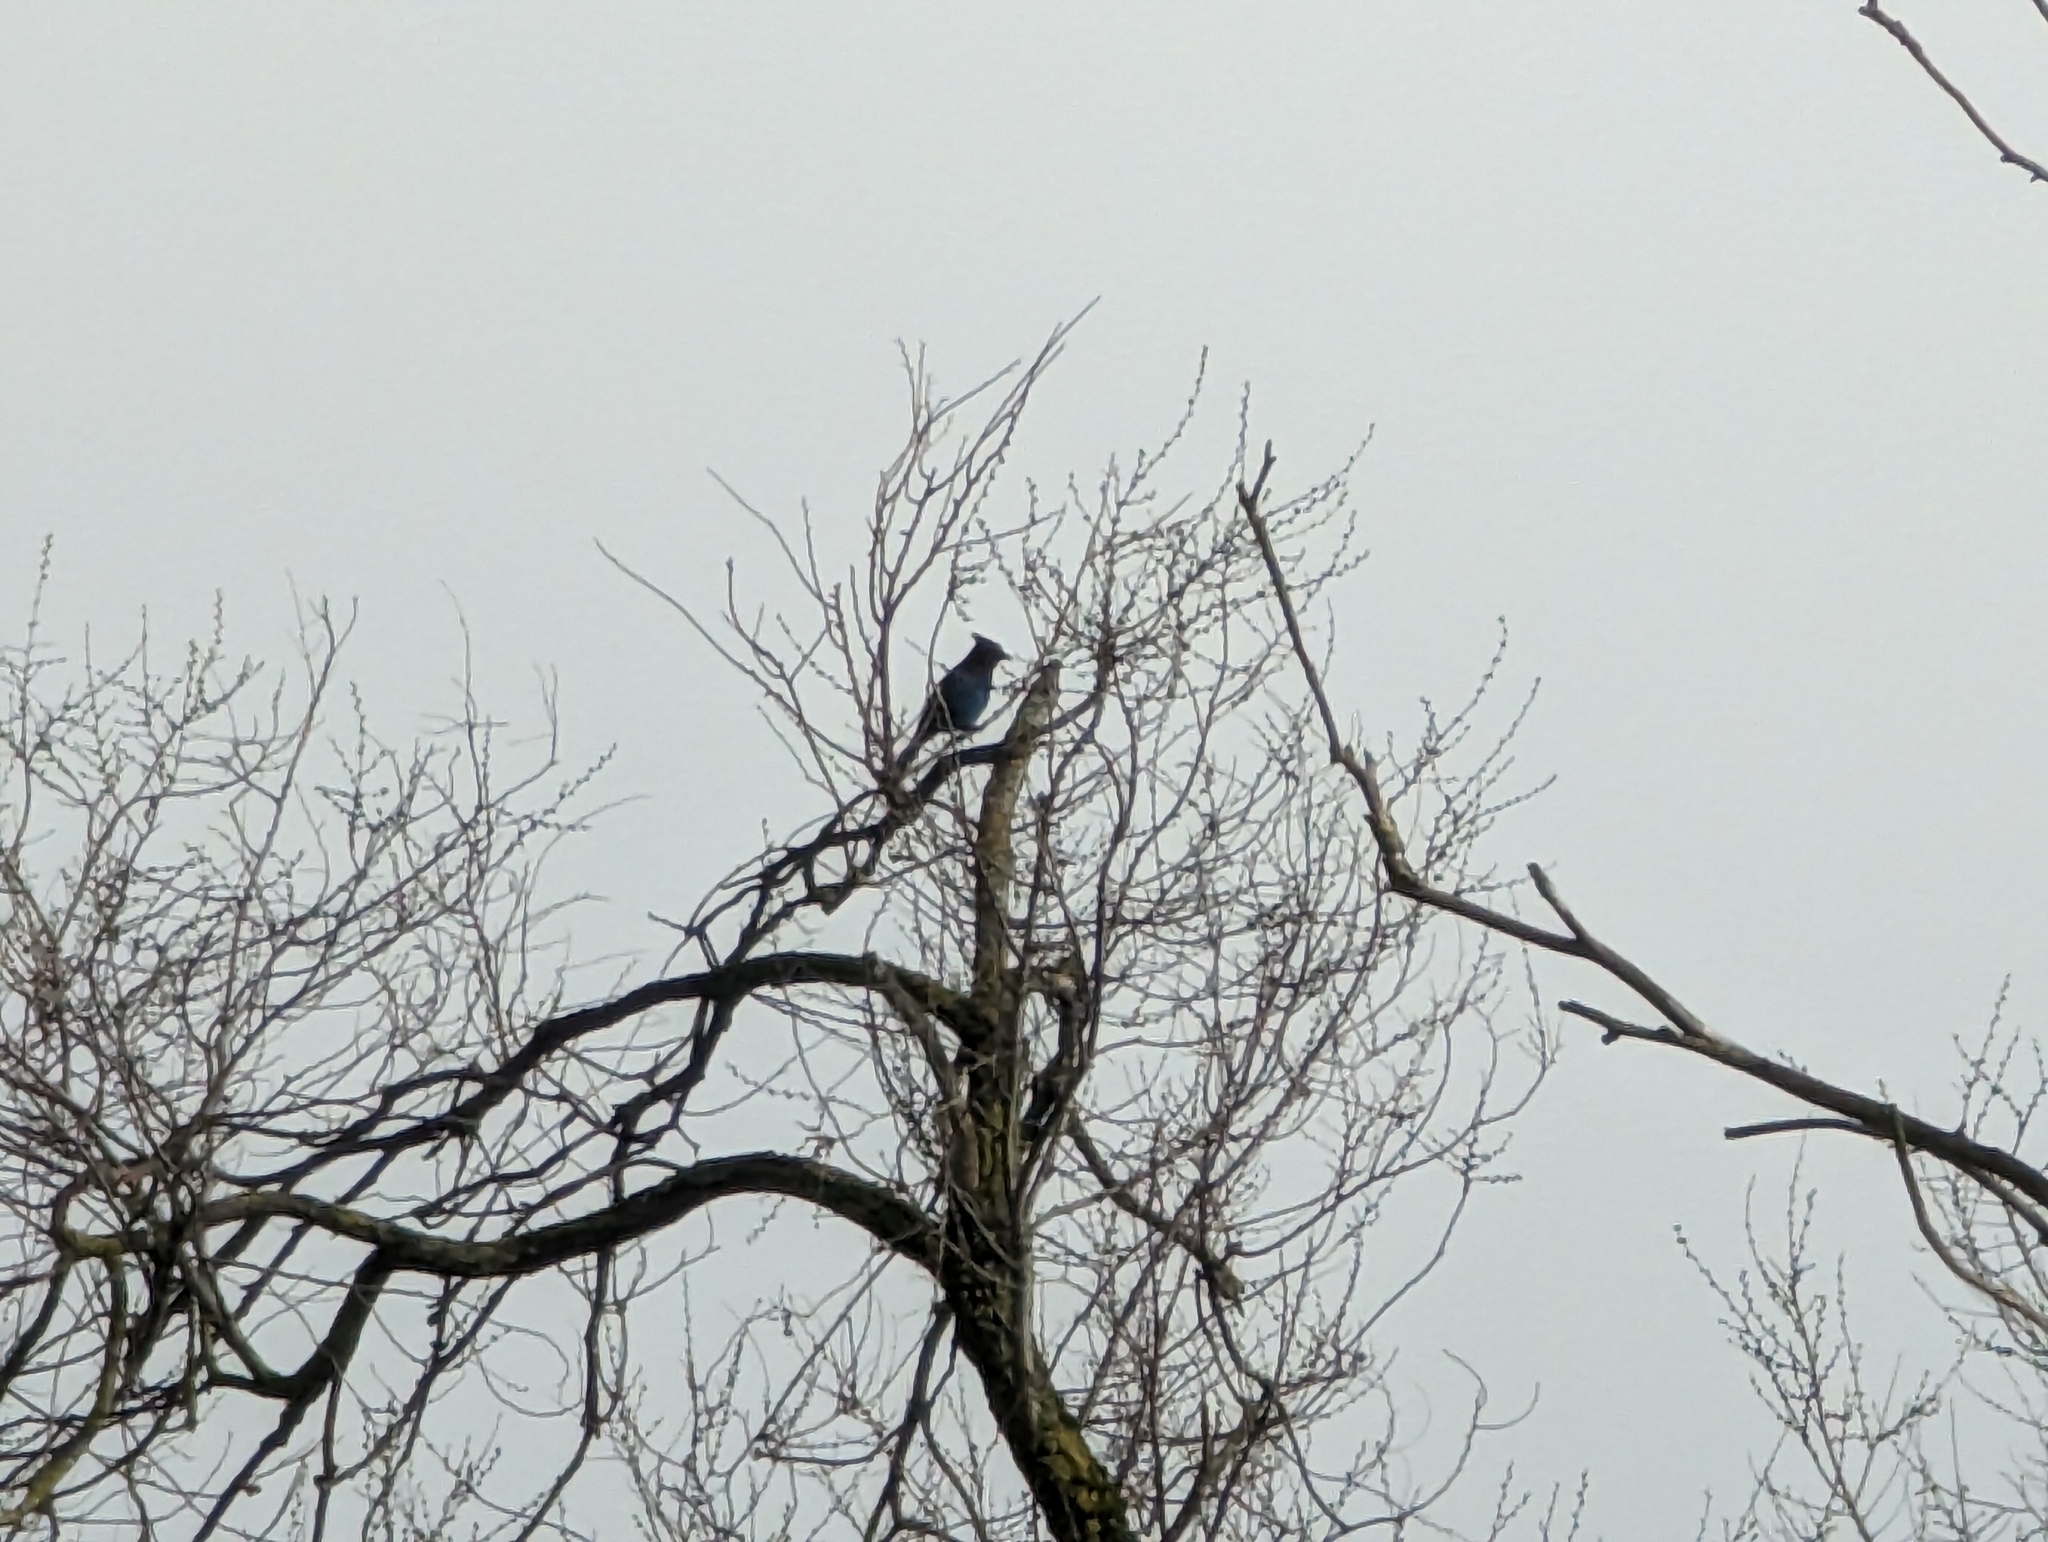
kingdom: Animalia
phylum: Chordata
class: Aves
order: Passeriformes
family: Corvidae
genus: Cyanocitta
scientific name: Cyanocitta stelleri
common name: Steller's jay
